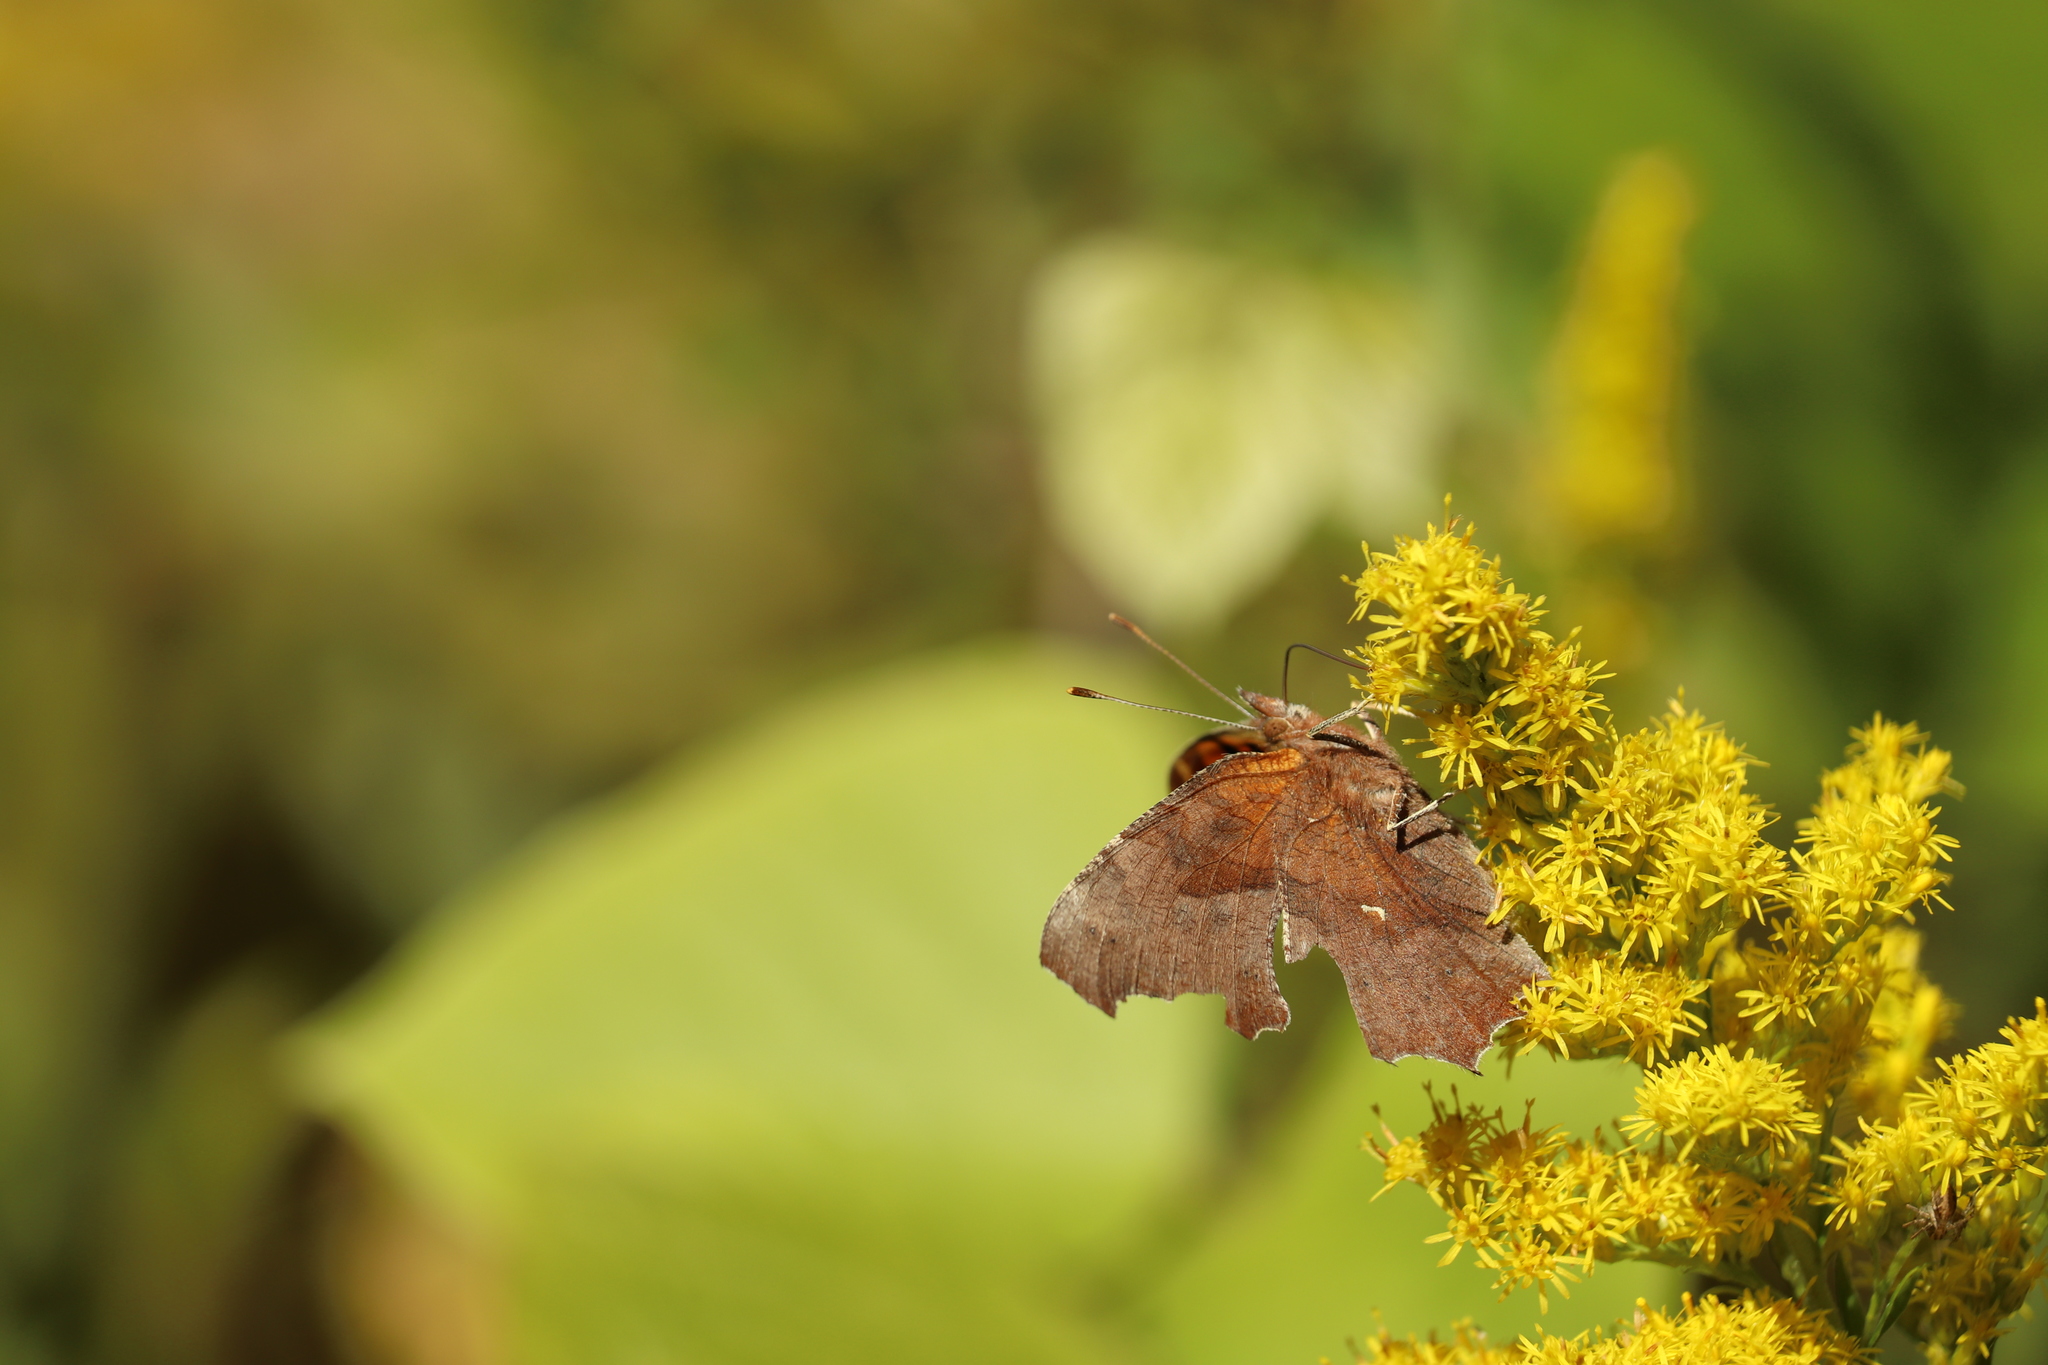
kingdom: Animalia
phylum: Arthropoda
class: Insecta
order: Lepidoptera
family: Nymphalidae
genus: Polygonia
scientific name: Polygonia c-aureum
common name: Asian comma
